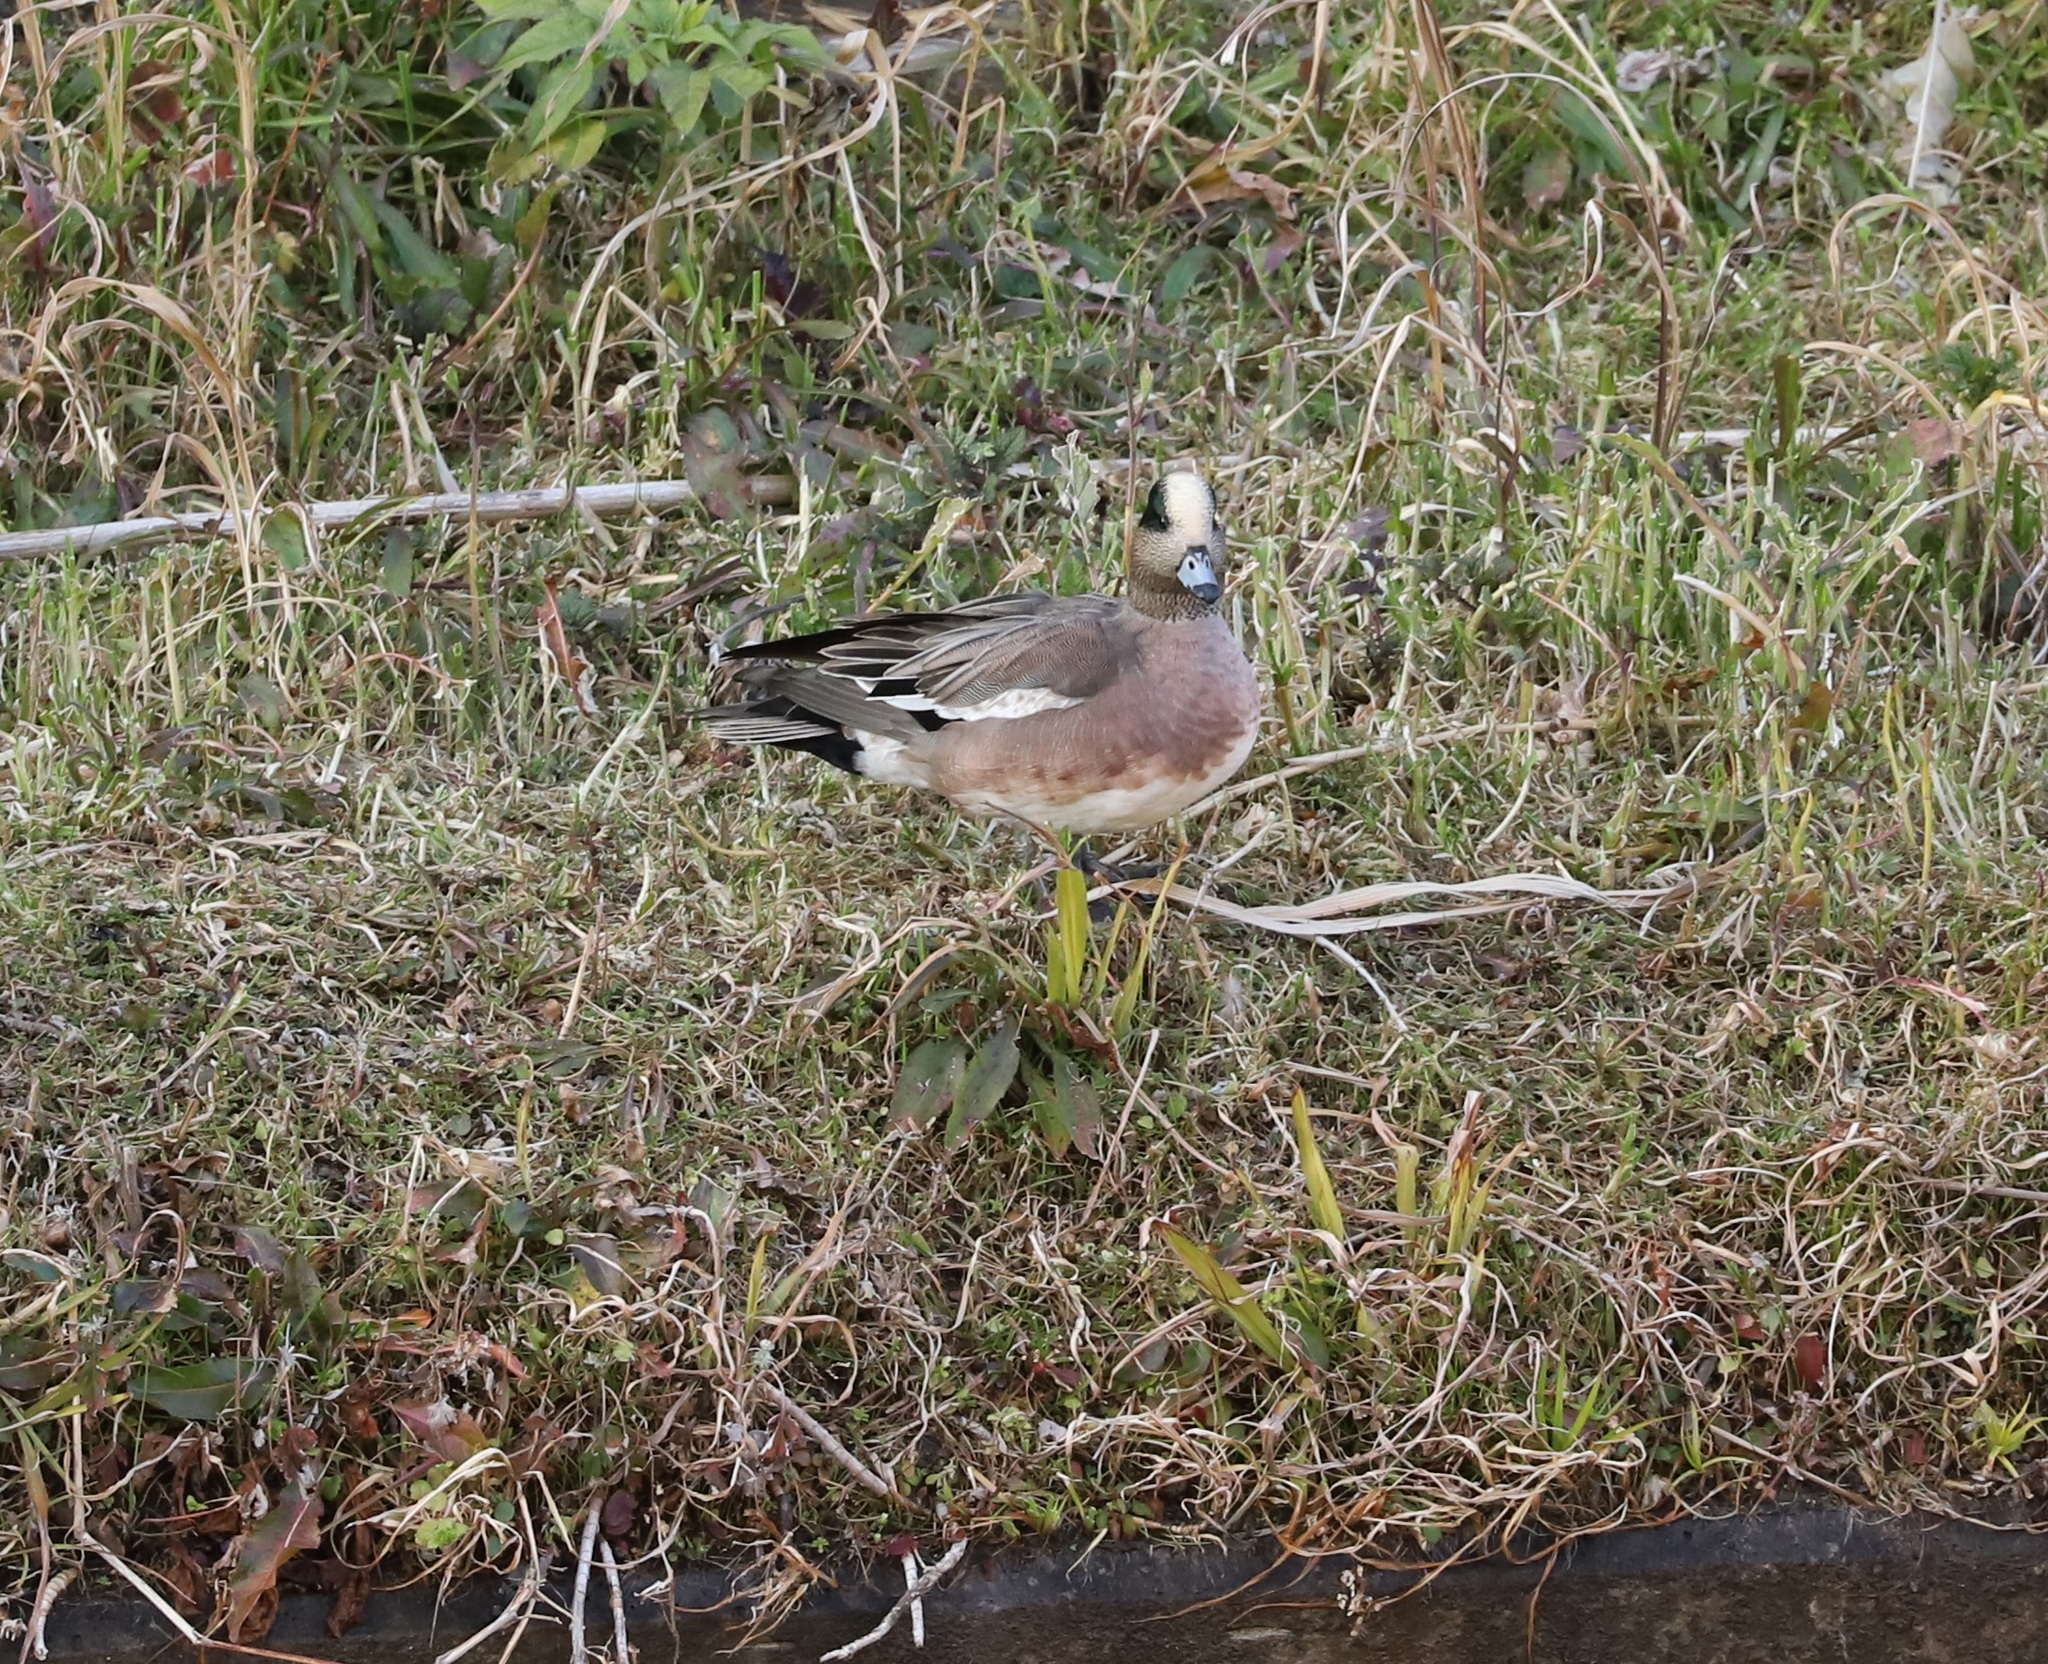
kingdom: Animalia
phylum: Chordata
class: Aves
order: Anseriformes
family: Anatidae
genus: Mareca
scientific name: Mareca americana
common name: American wigeon
